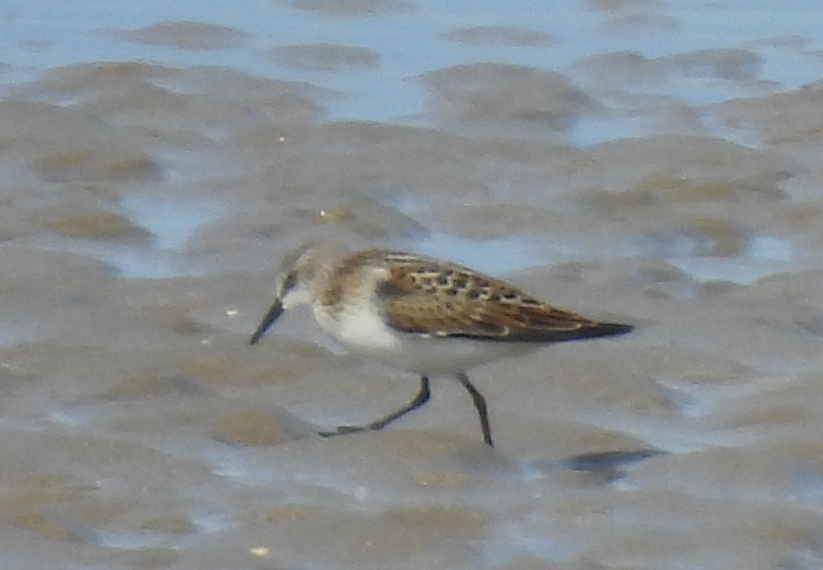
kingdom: Animalia
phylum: Chordata
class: Aves
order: Charadriiformes
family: Scolopacidae
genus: Calidris
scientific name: Calidris minuta
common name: Little stint
